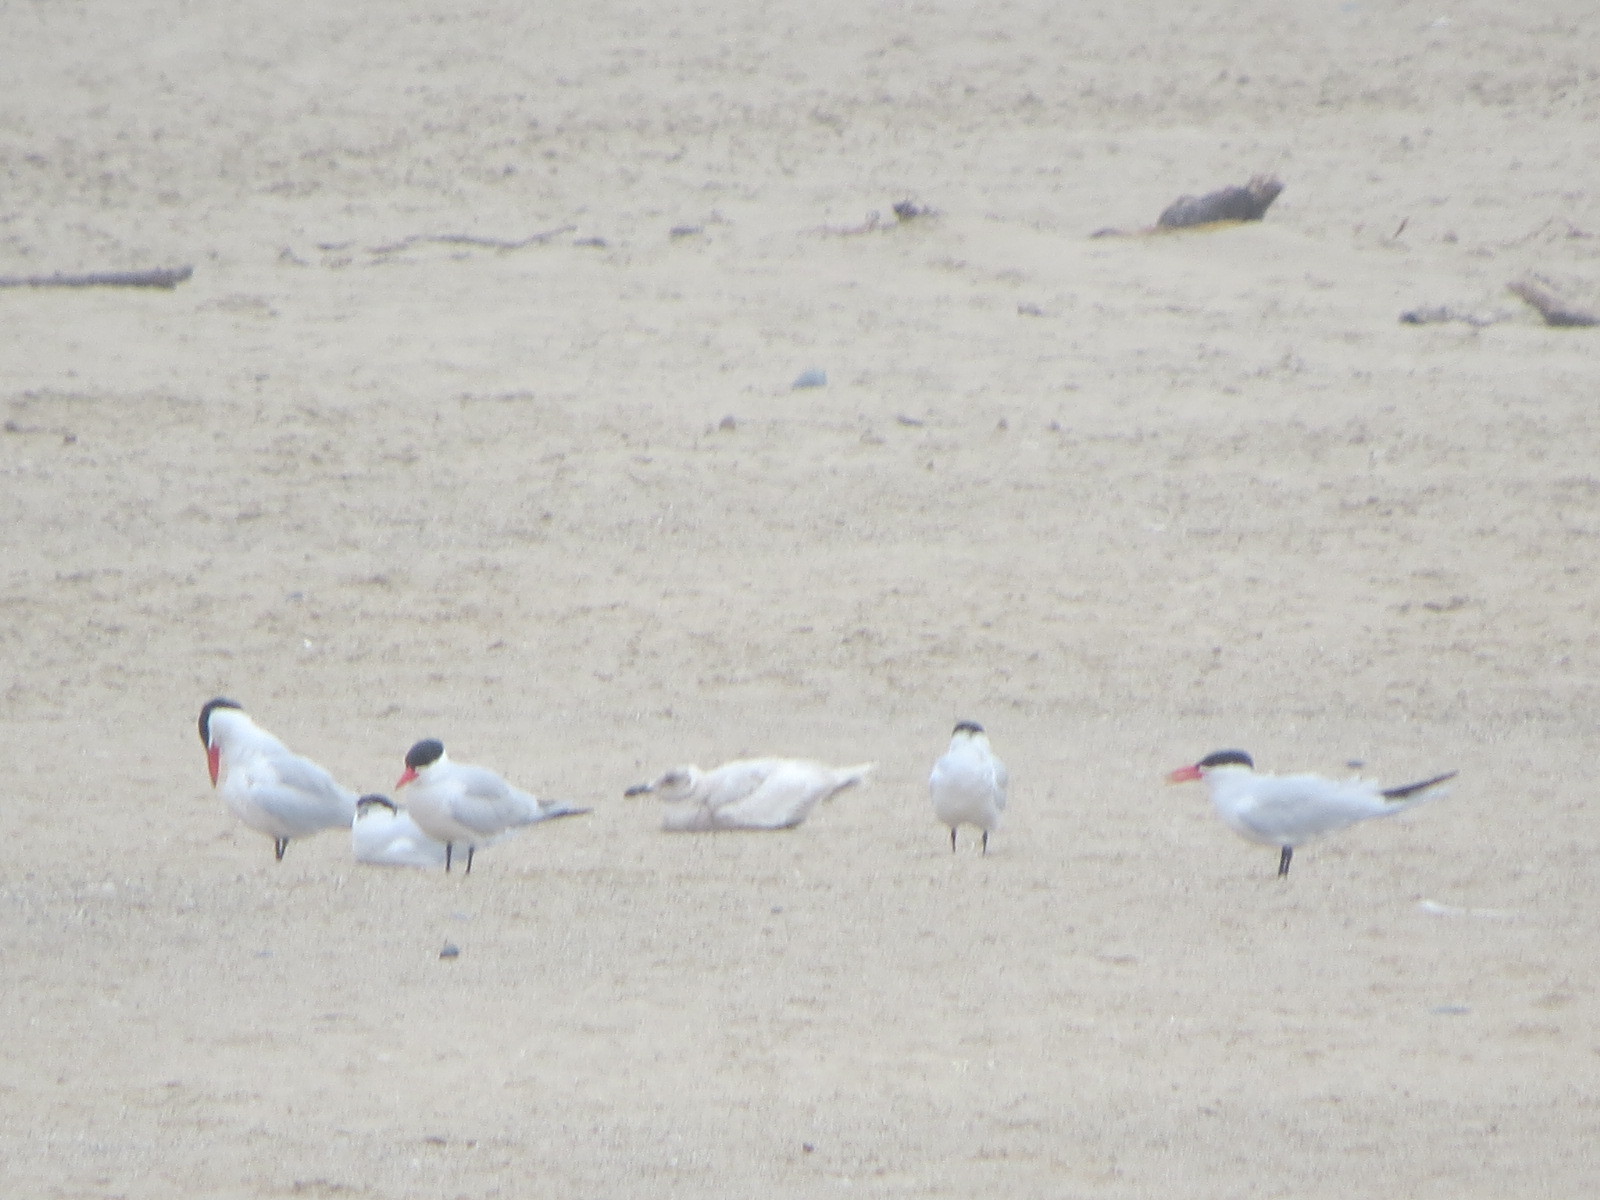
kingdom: Animalia
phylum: Chordata
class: Aves
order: Charadriiformes
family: Laridae
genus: Larus
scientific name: Larus glaucescens
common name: Glaucous-winged gull
